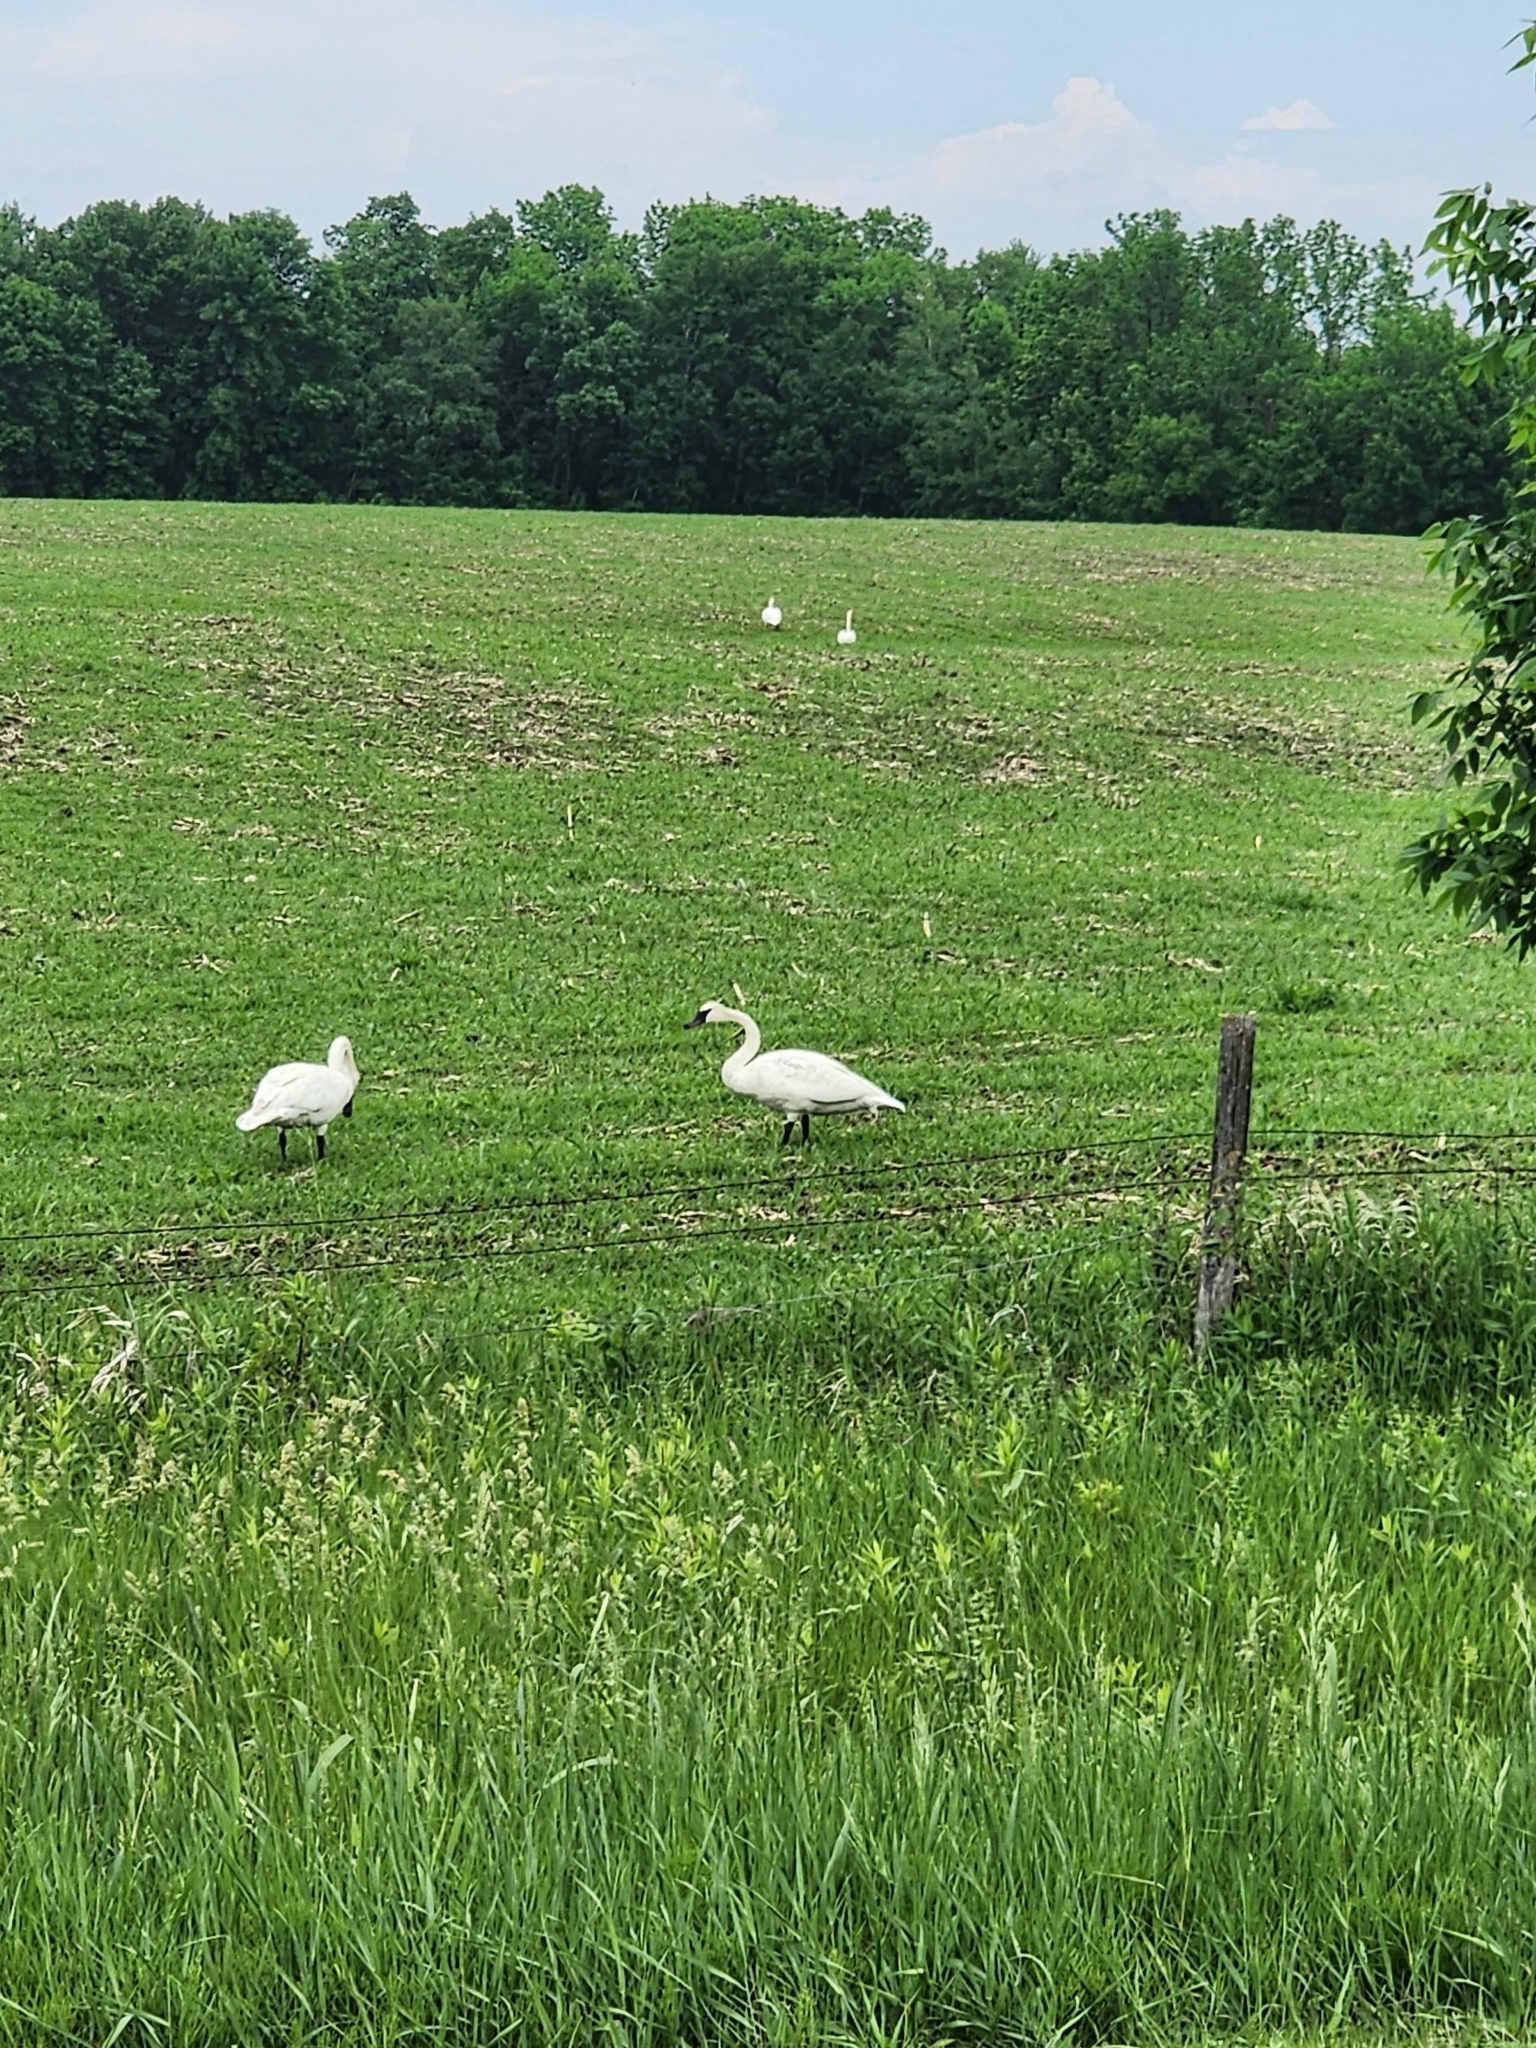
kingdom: Animalia
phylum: Chordata
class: Aves
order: Anseriformes
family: Anatidae
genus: Cygnus
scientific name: Cygnus buccinator
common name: Trumpeter swan
